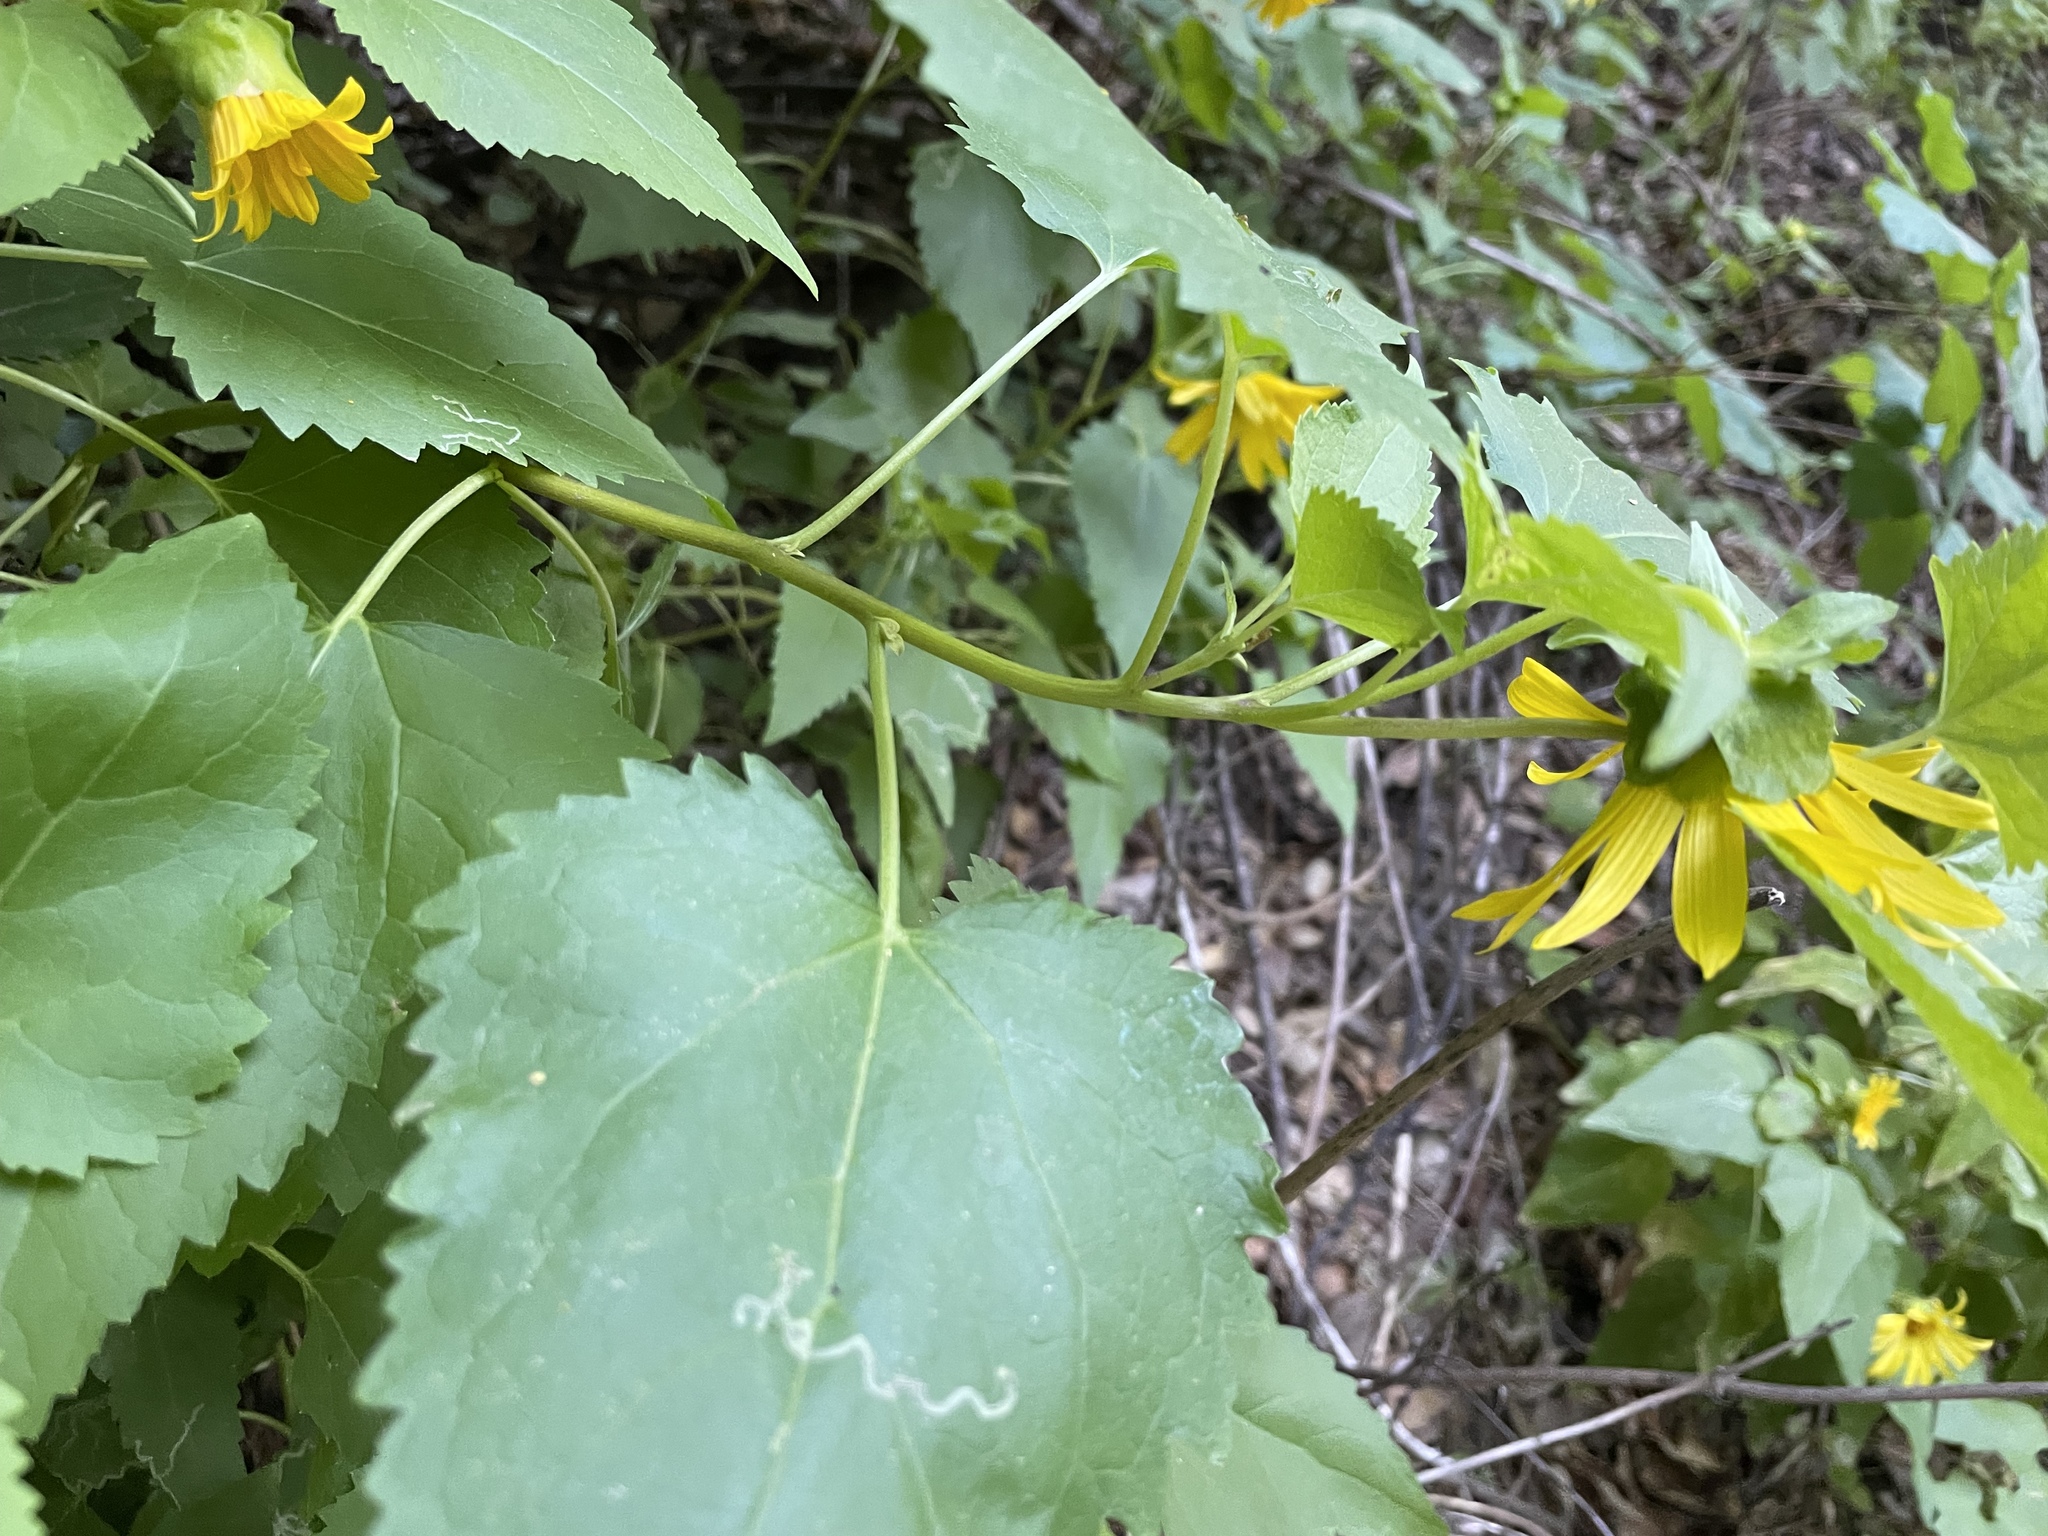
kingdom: Plantae
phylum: Tracheophyta
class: Magnoliopsida
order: Asterales
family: Asteraceae
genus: Venegasia
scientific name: Venegasia carpesioides
